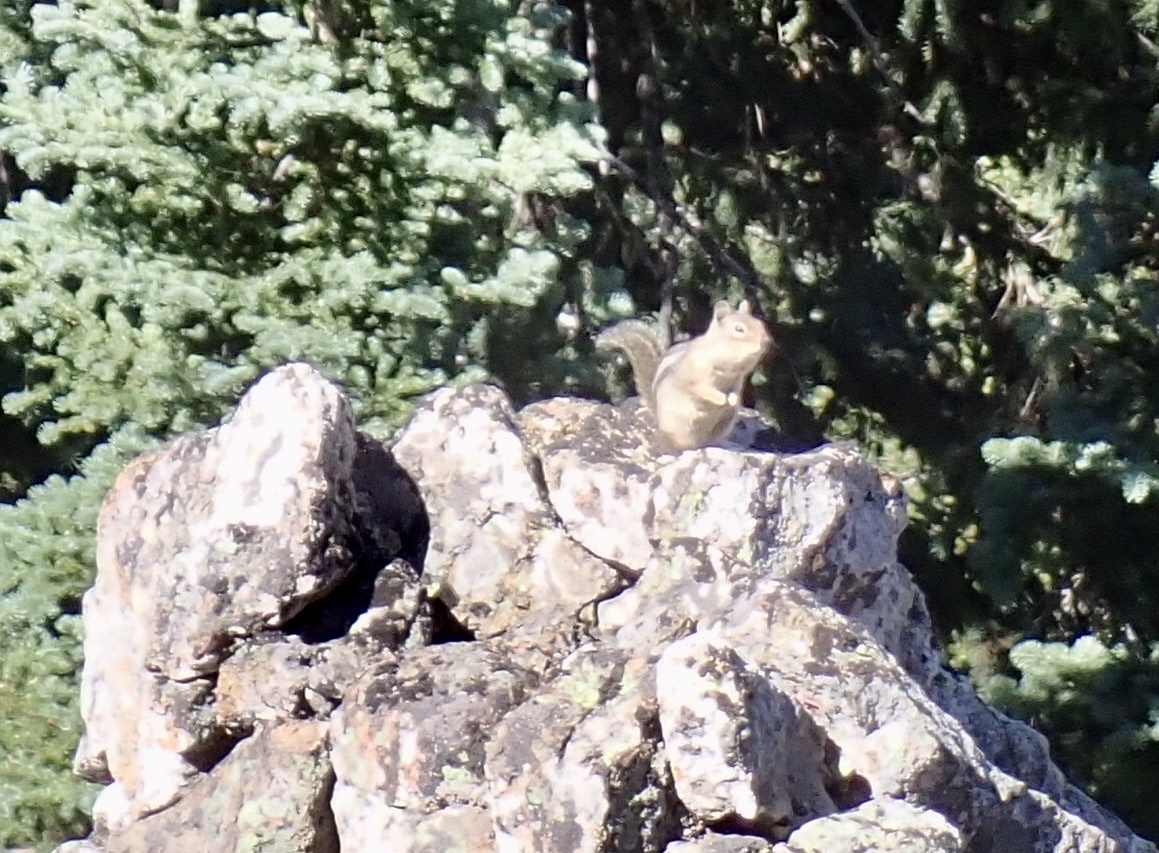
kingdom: Animalia
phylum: Chordata
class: Mammalia
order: Rodentia
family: Sciuridae
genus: Callospermophilus
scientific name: Callospermophilus saturatus
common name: Cascade golden-mantled ground squirrel
